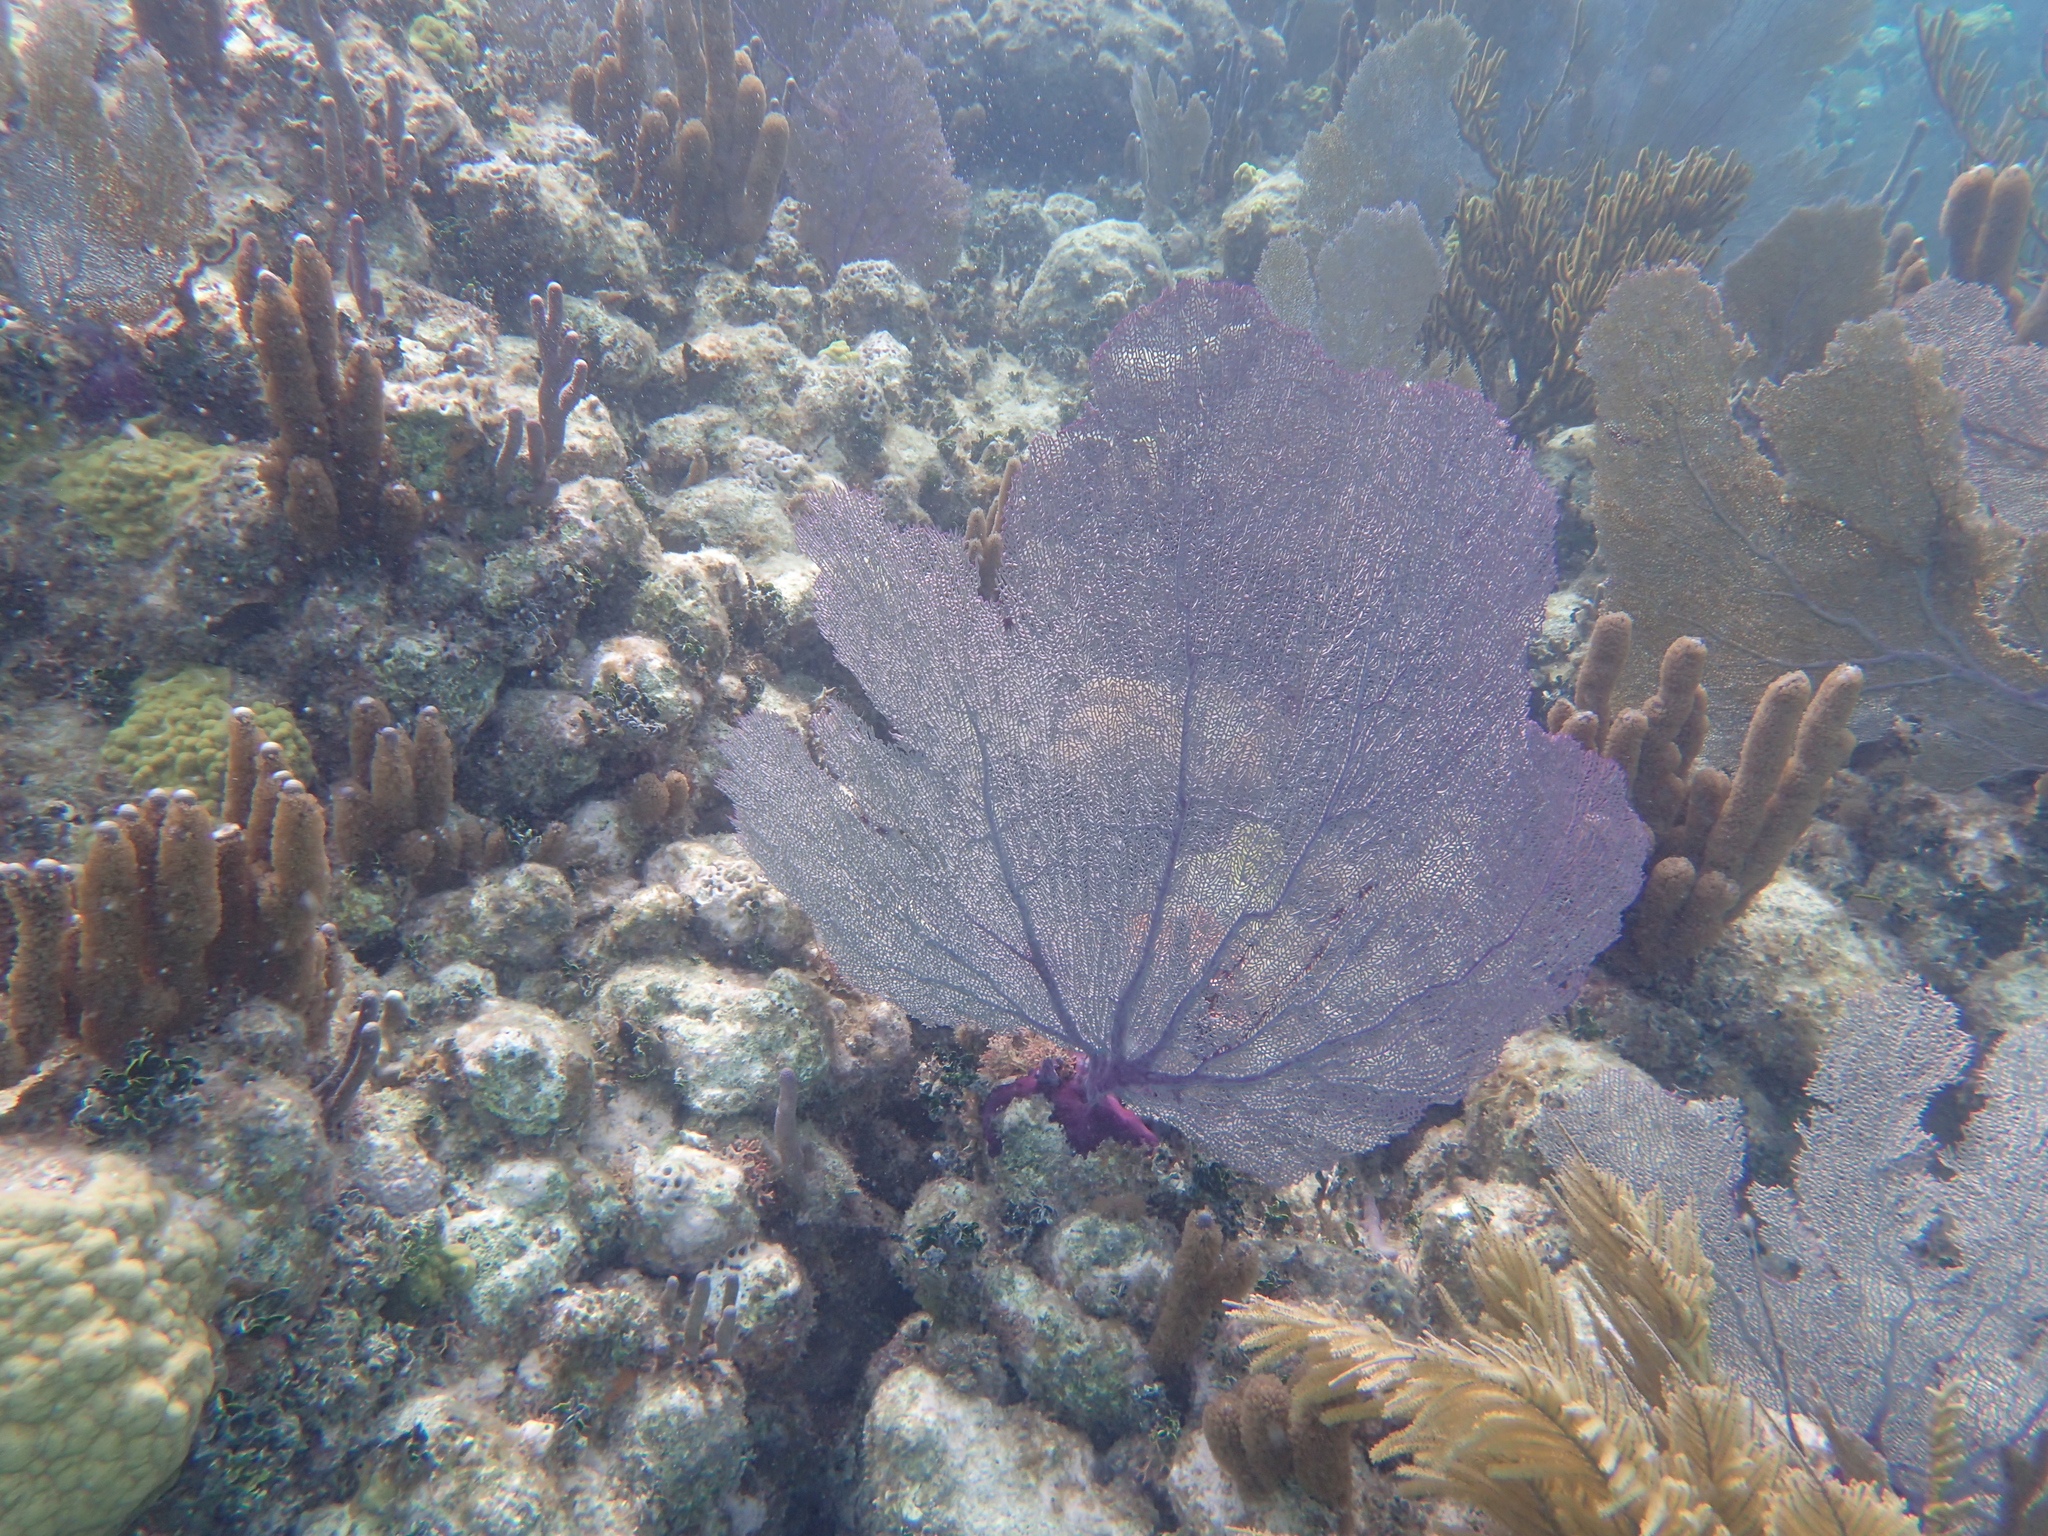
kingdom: Animalia
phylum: Cnidaria
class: Anthozoa
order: Malacalcyonacea
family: Gorgoniidae
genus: Gorgonia
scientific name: Gorgonia ventalina
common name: Common sea fan
